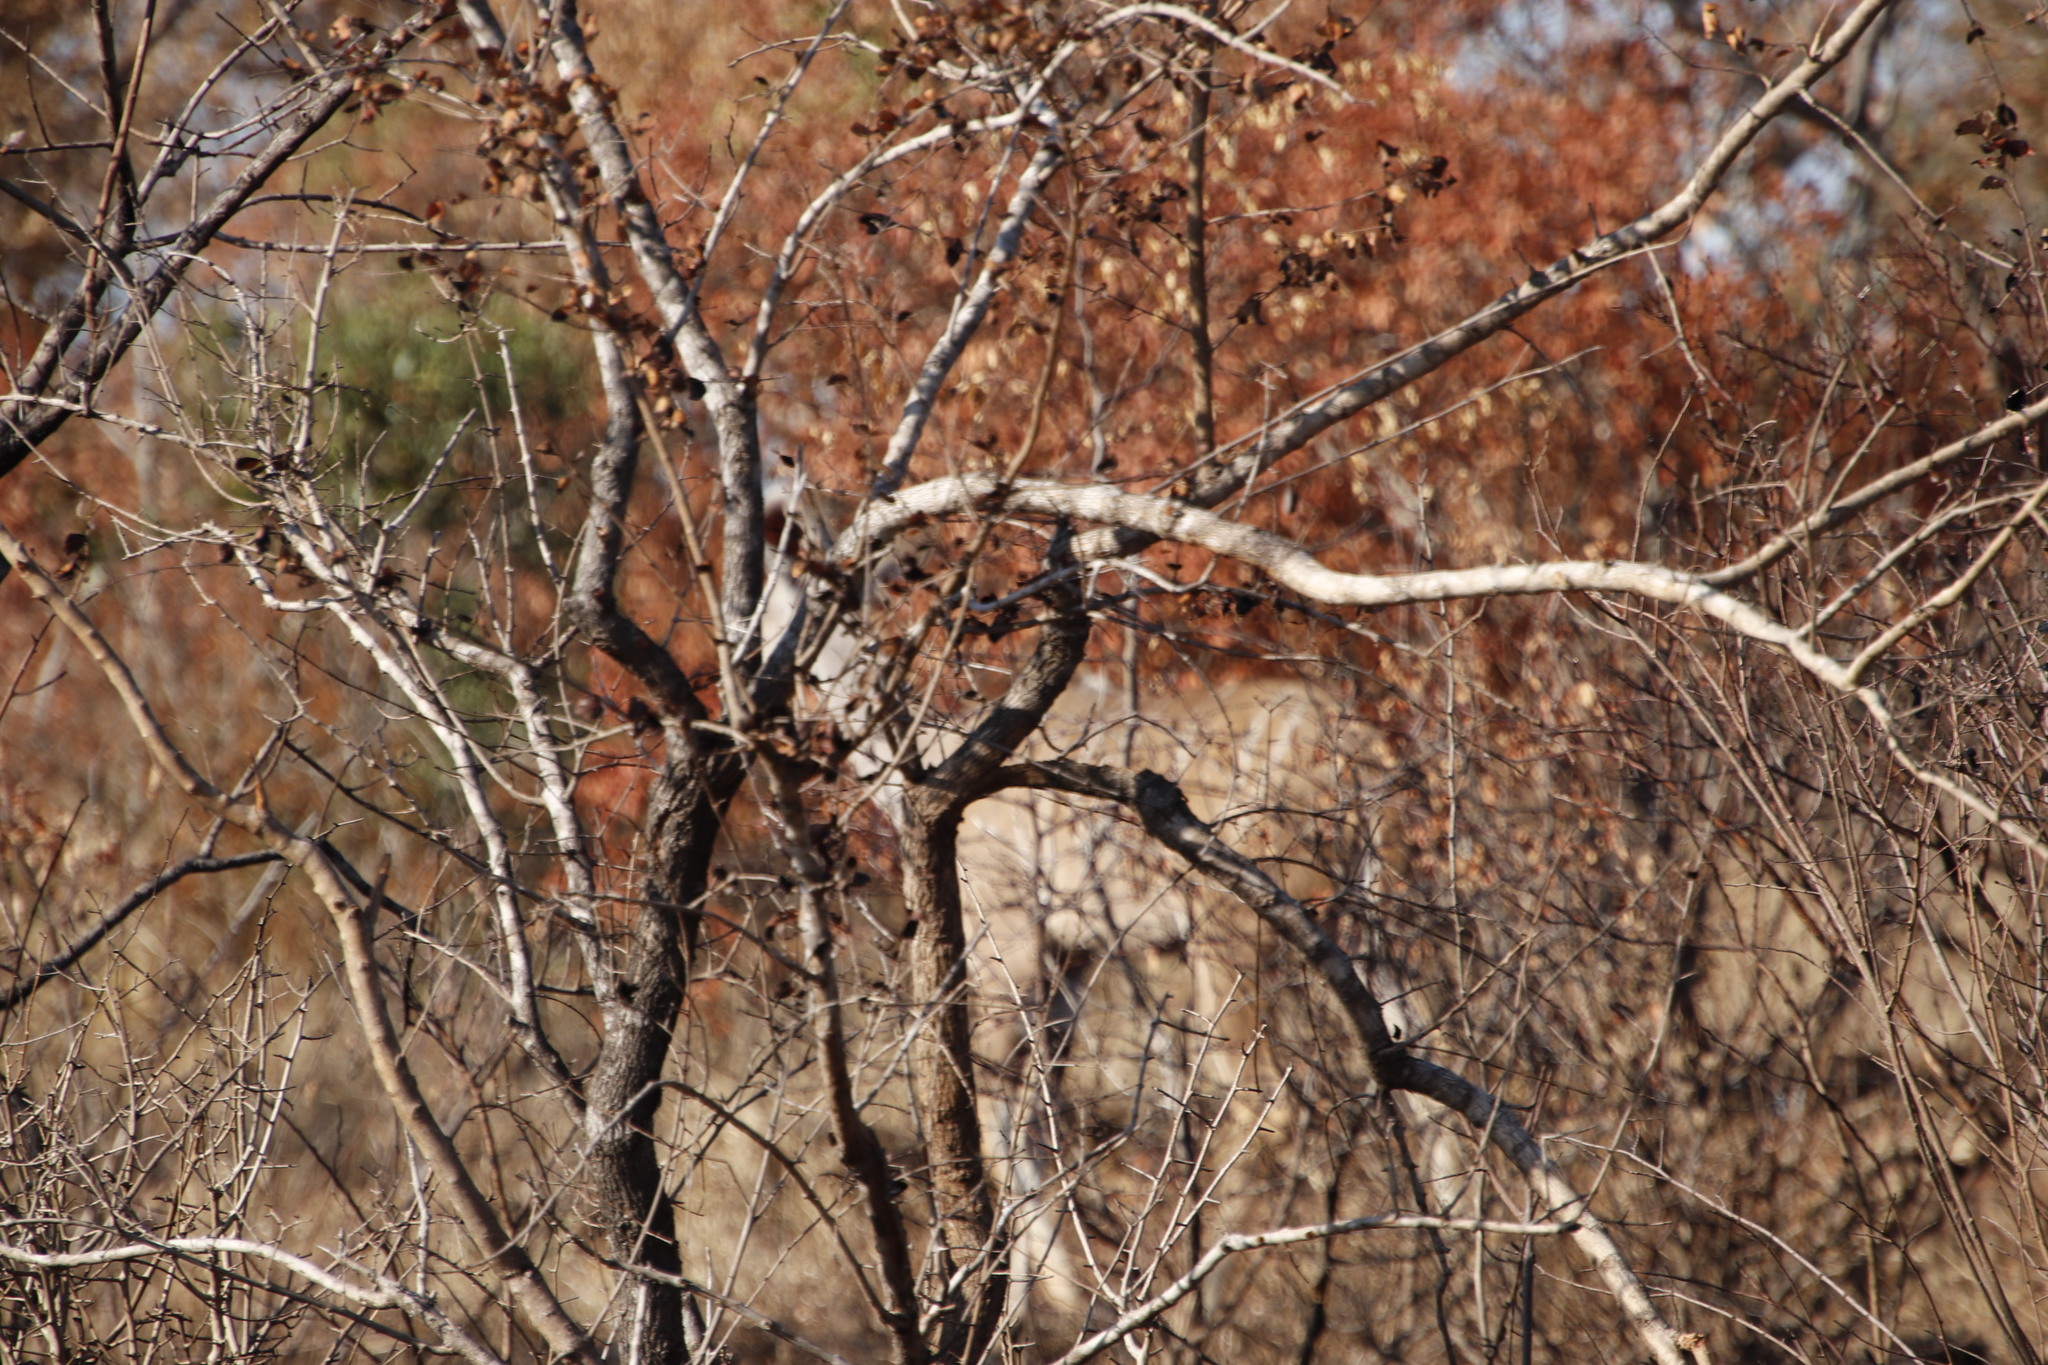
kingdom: Animalia
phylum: Chordata
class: Mammalia
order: Artiodactyla
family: Bovidae
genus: Tragelaphus
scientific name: Tragelaphus strepsiceros
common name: Greater kudu
